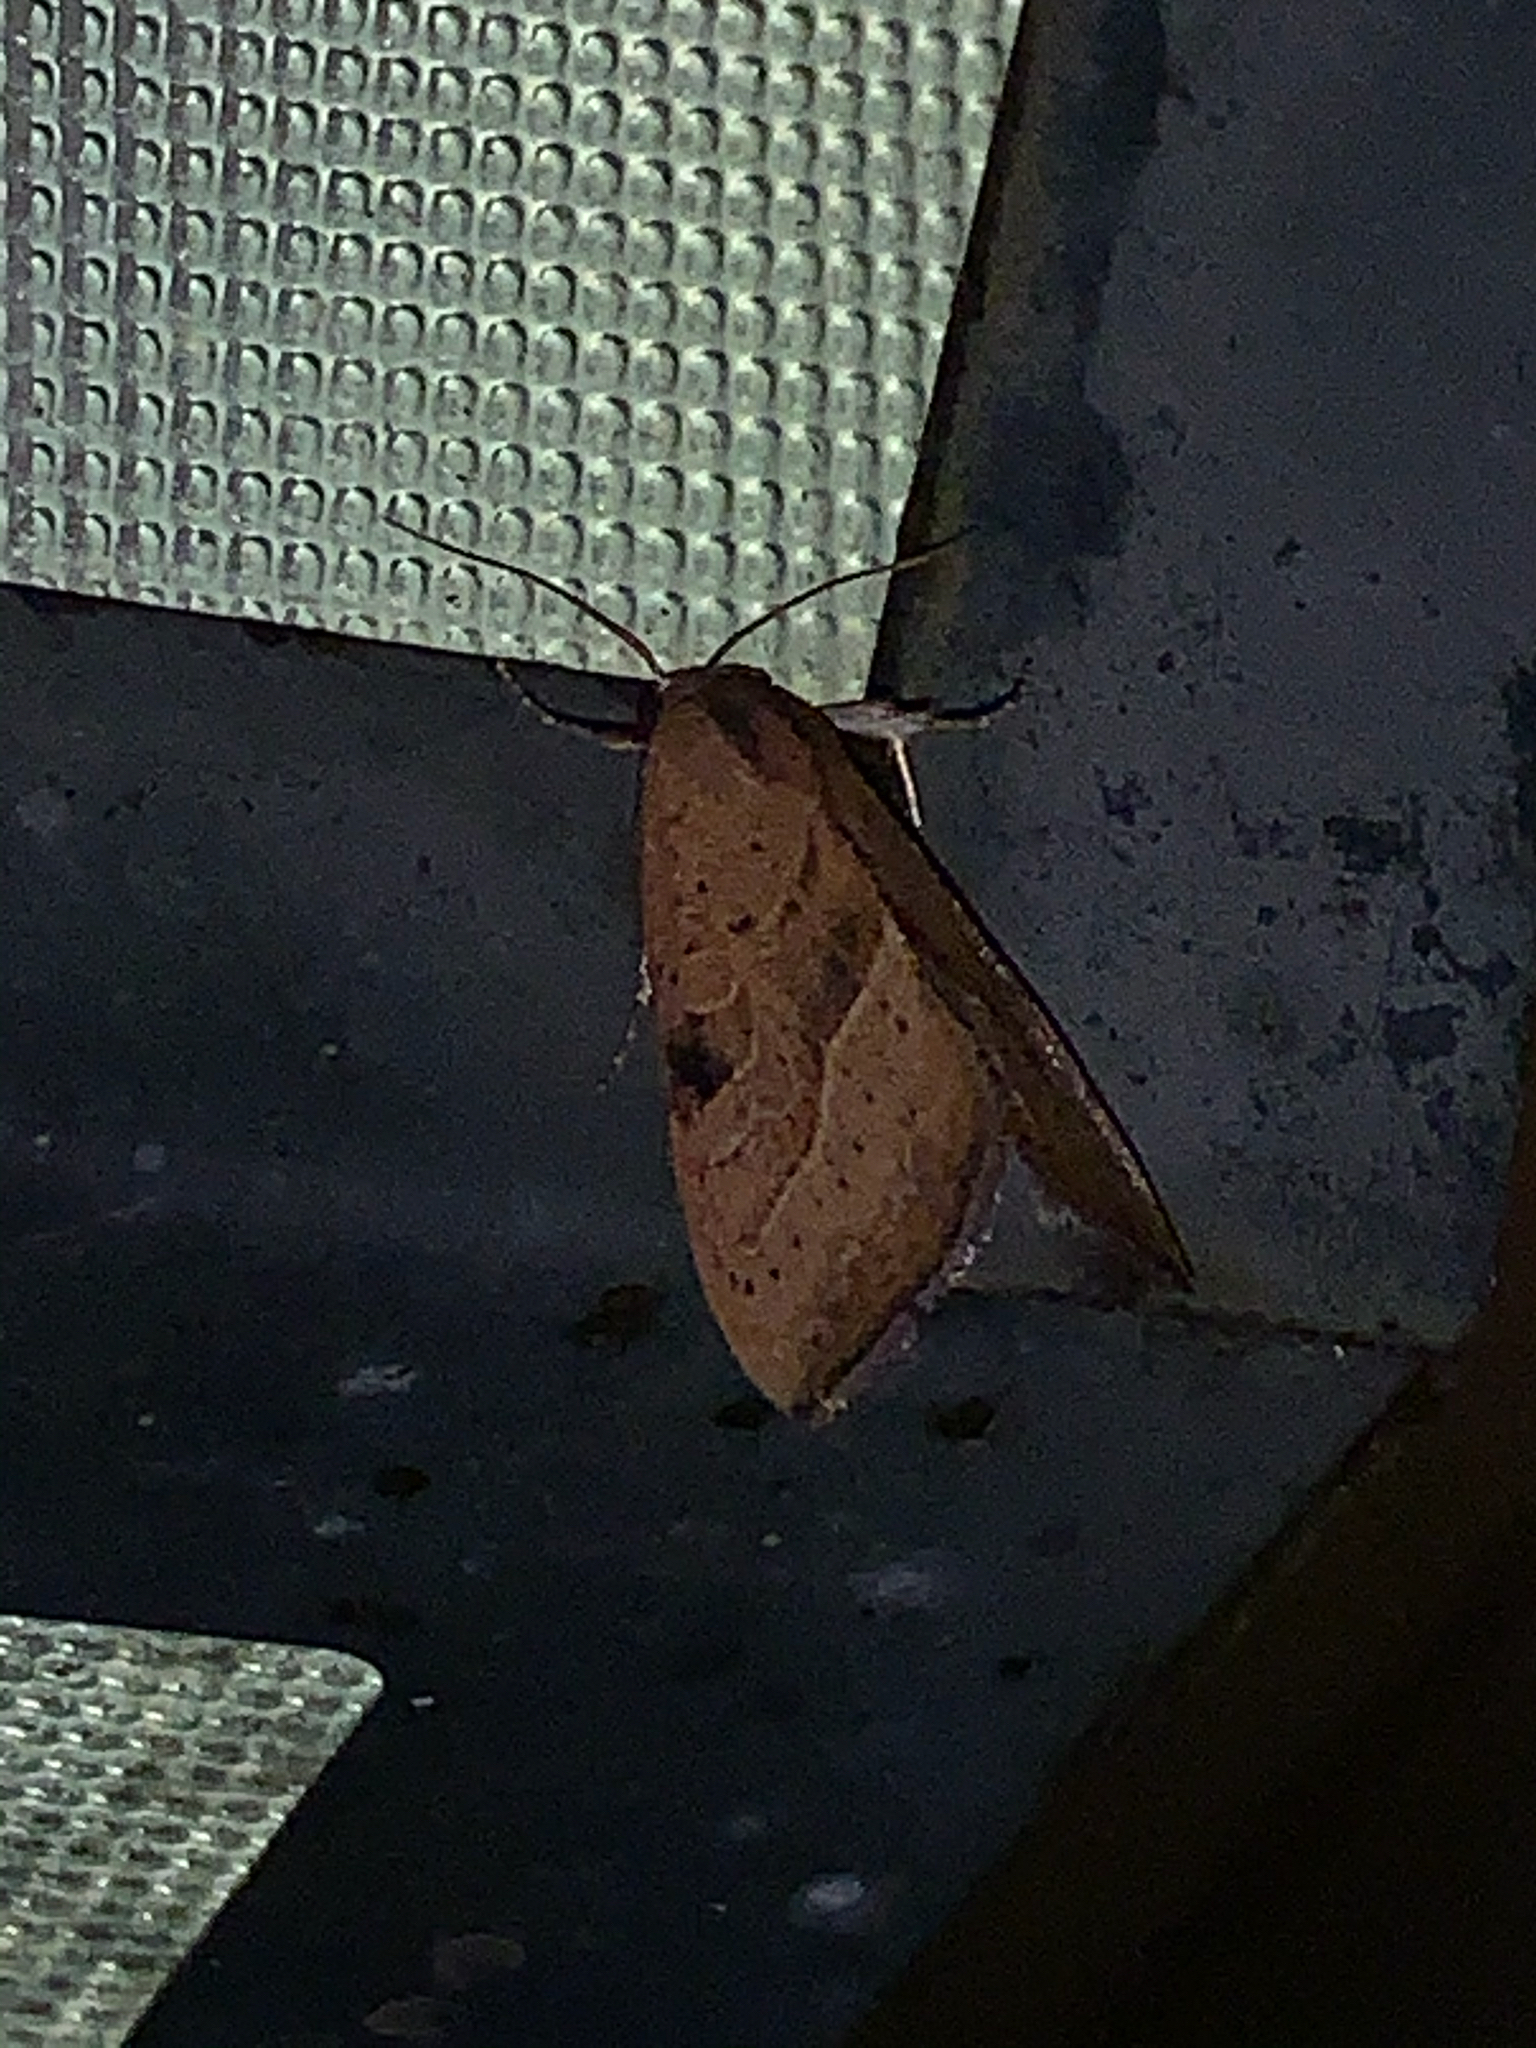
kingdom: Animalia
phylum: Arthropoda
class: Insecta
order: Lepidoptera
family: Noctuidae
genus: Galgula
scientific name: Galgula partita
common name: Wedgeling
